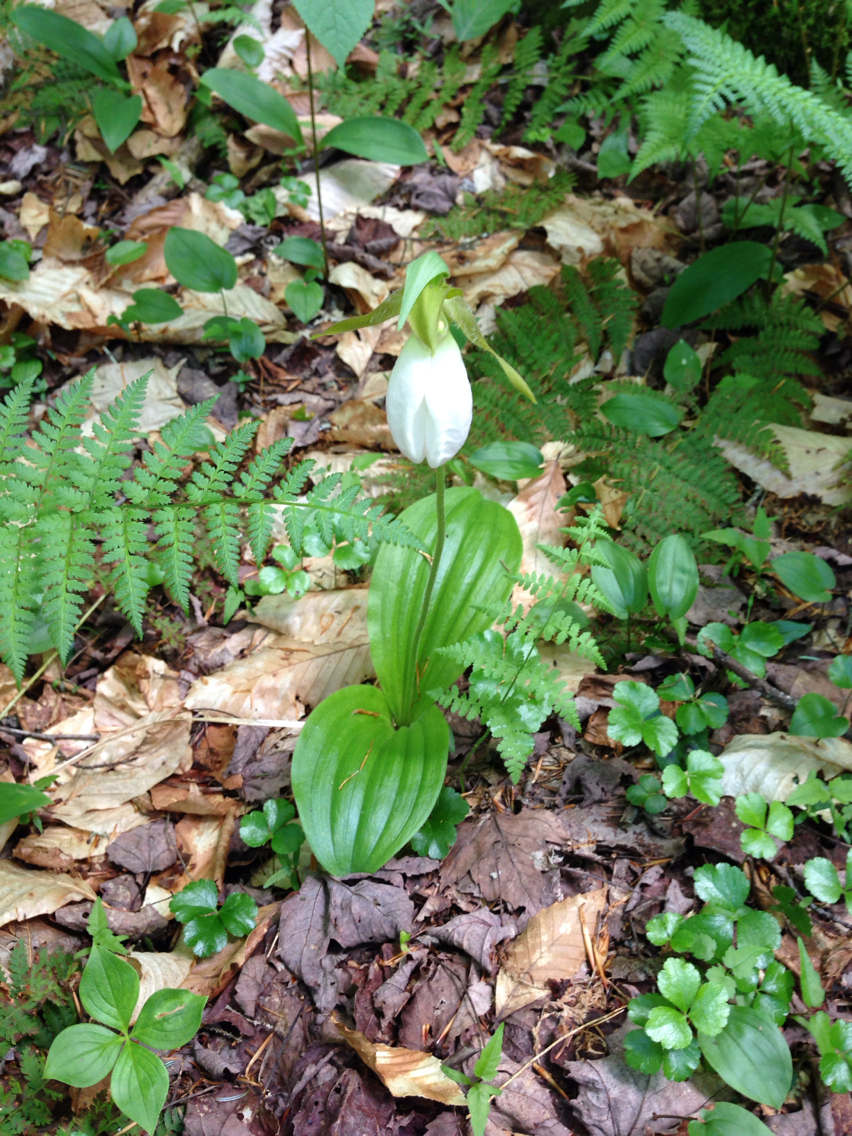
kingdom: Plantae
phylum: Tracheophyta
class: Liliopsida
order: Asparagales
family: Orchidaceae
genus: Cypripedium
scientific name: Cypripedium acaule
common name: Pink lady's-slipper
